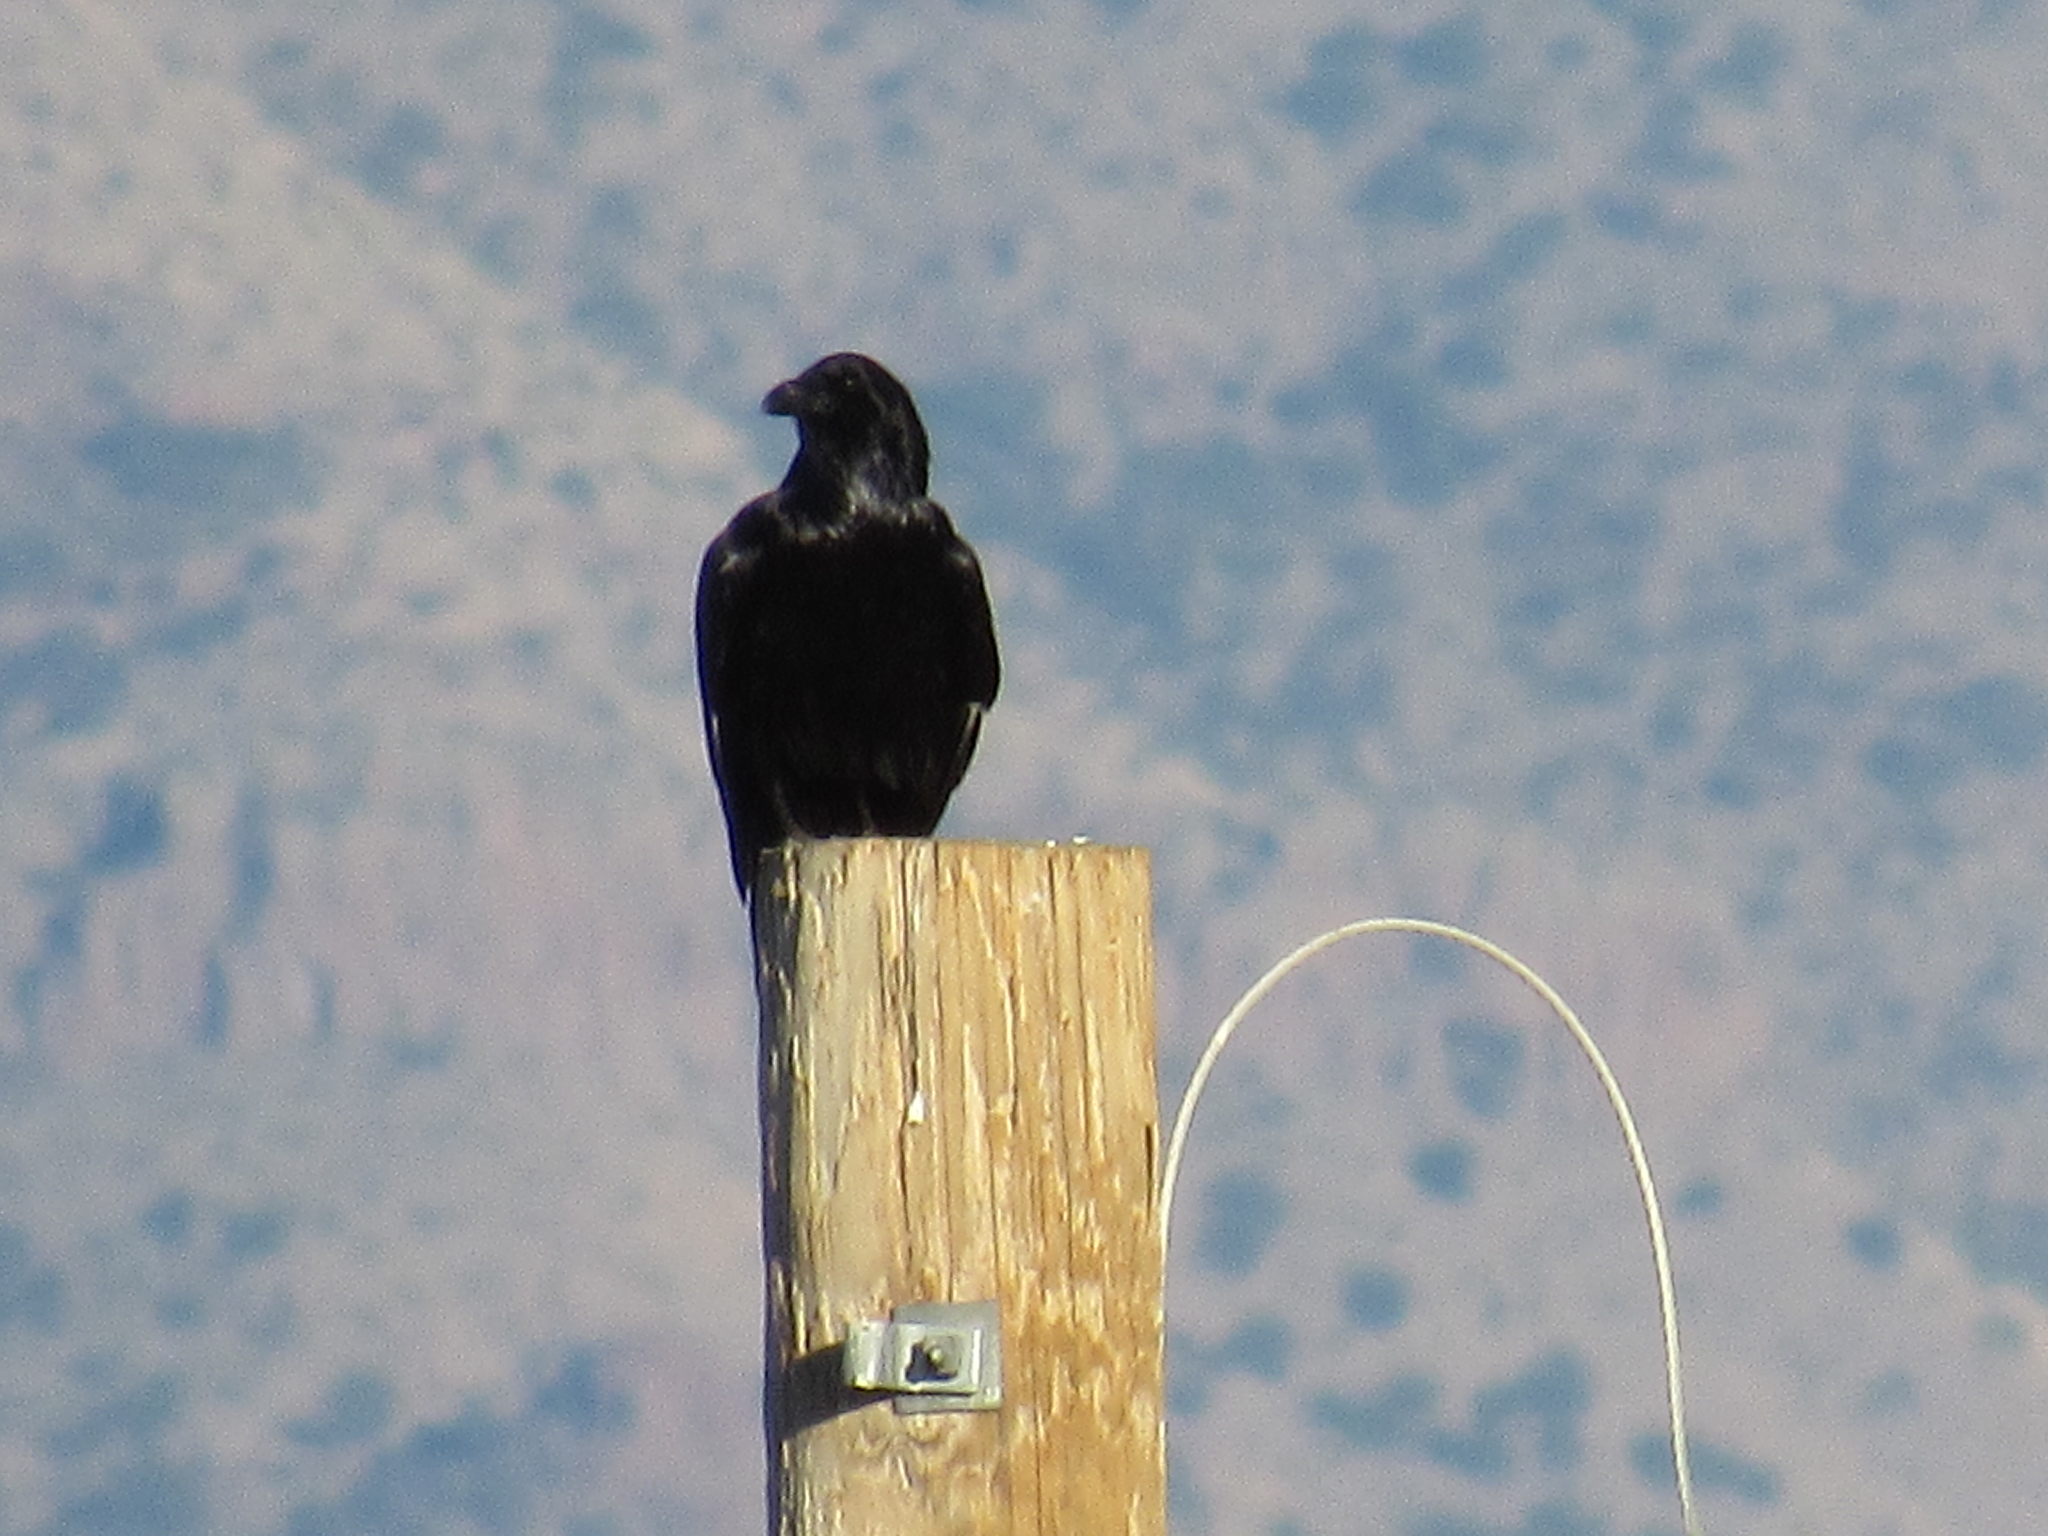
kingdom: Animalia
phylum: Chordata
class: Aves
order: Passeriformes
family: Corvidae
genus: Corvus
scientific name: Corvus corax
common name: Common raven
